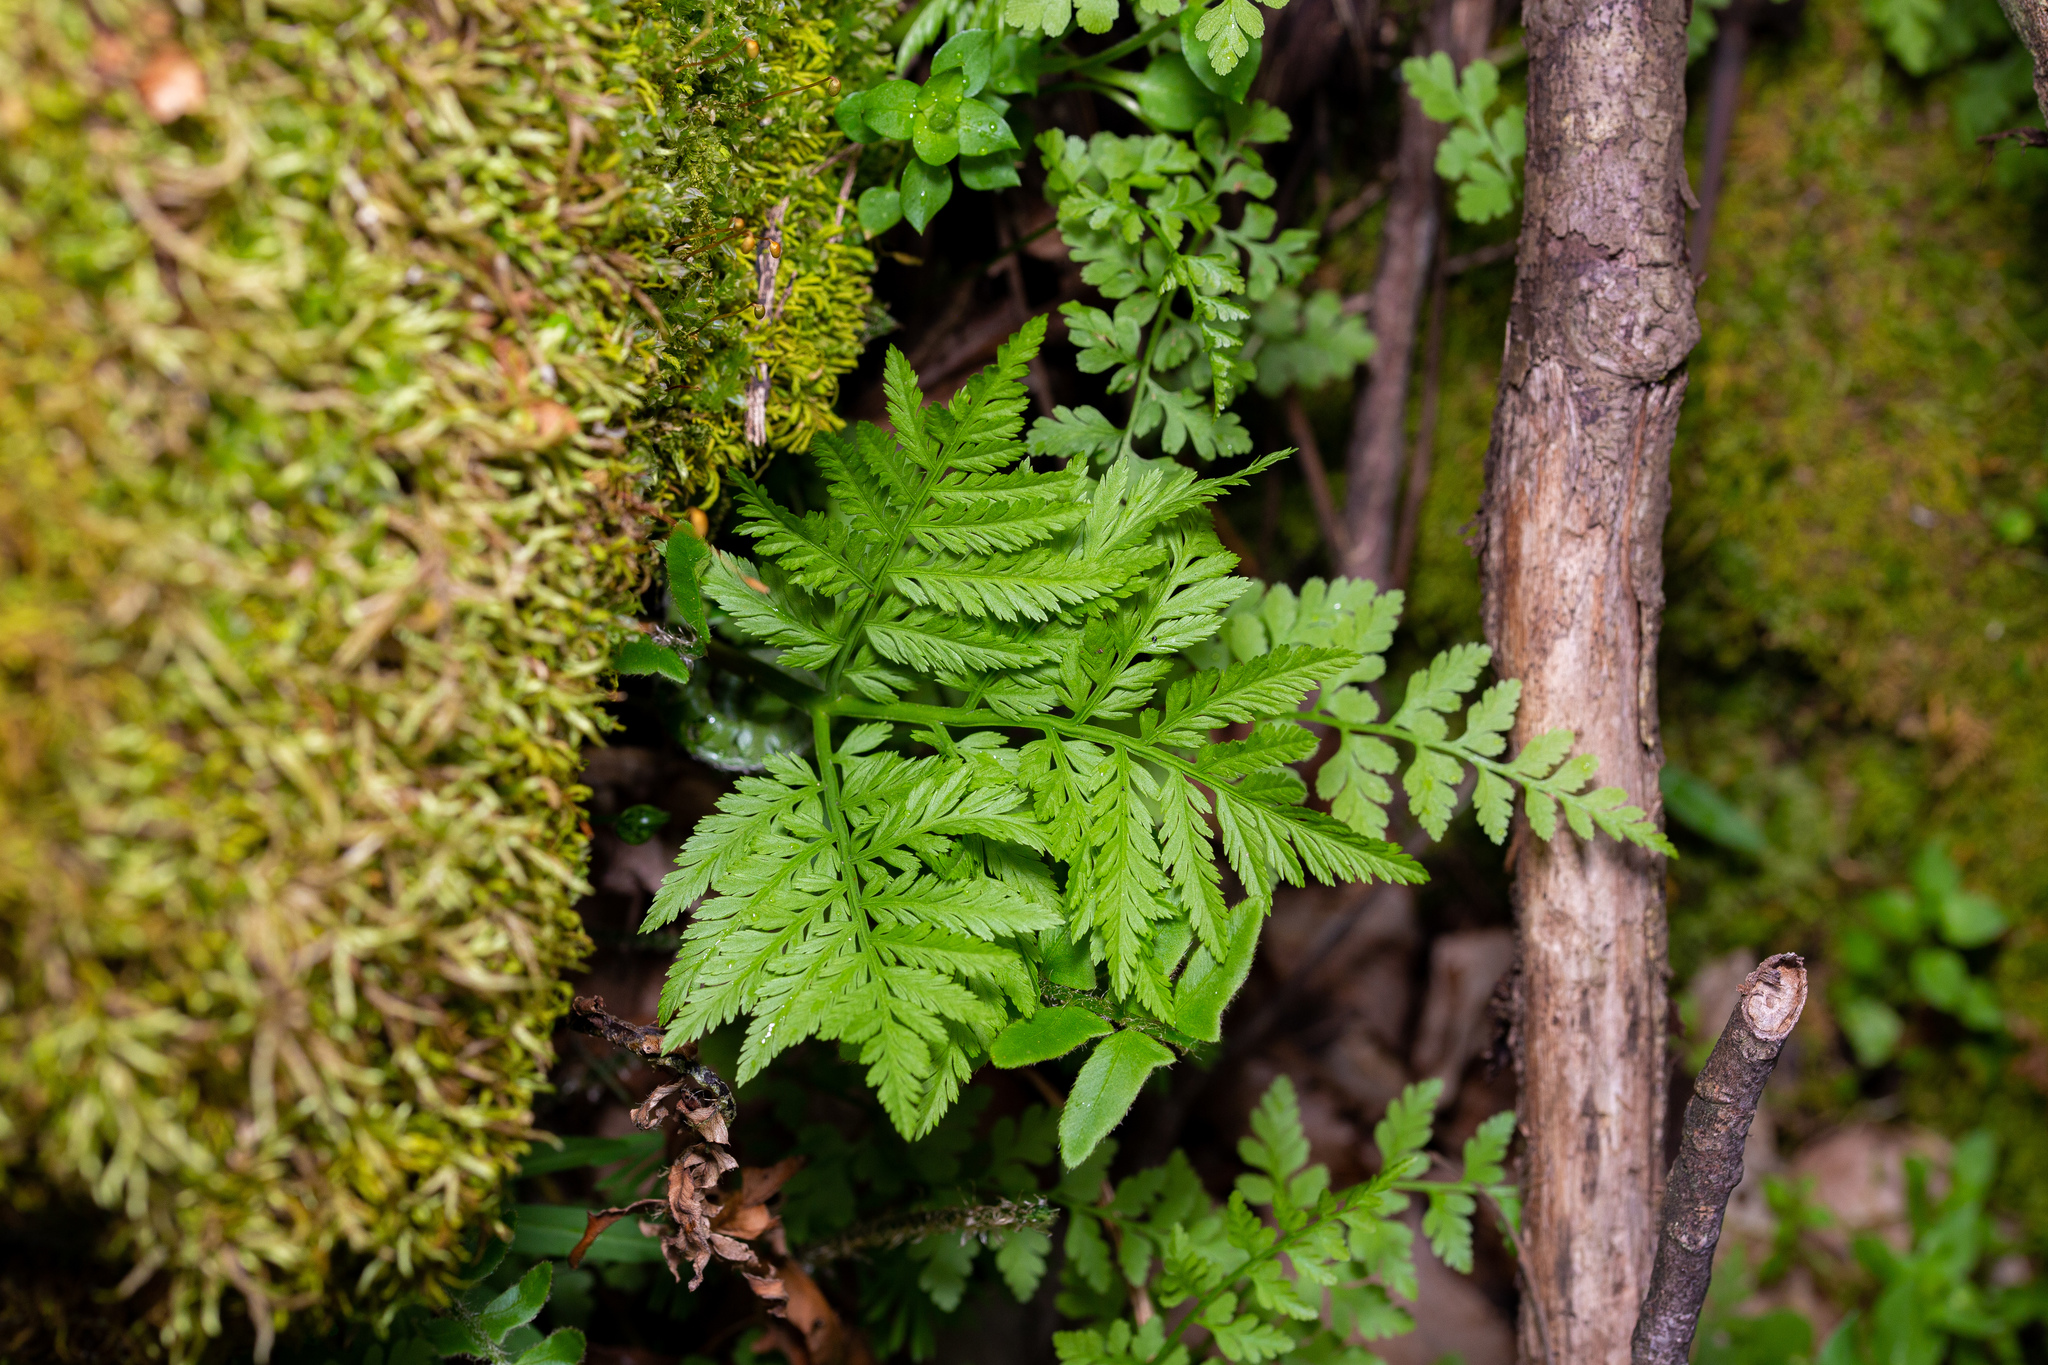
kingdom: Plantae
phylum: Tracheophyta
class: Polypodiopsida
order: Ophioglossales
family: Ophioglossaceae
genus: Botrypus
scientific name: Botrypus virginianus
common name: Common grapefern
